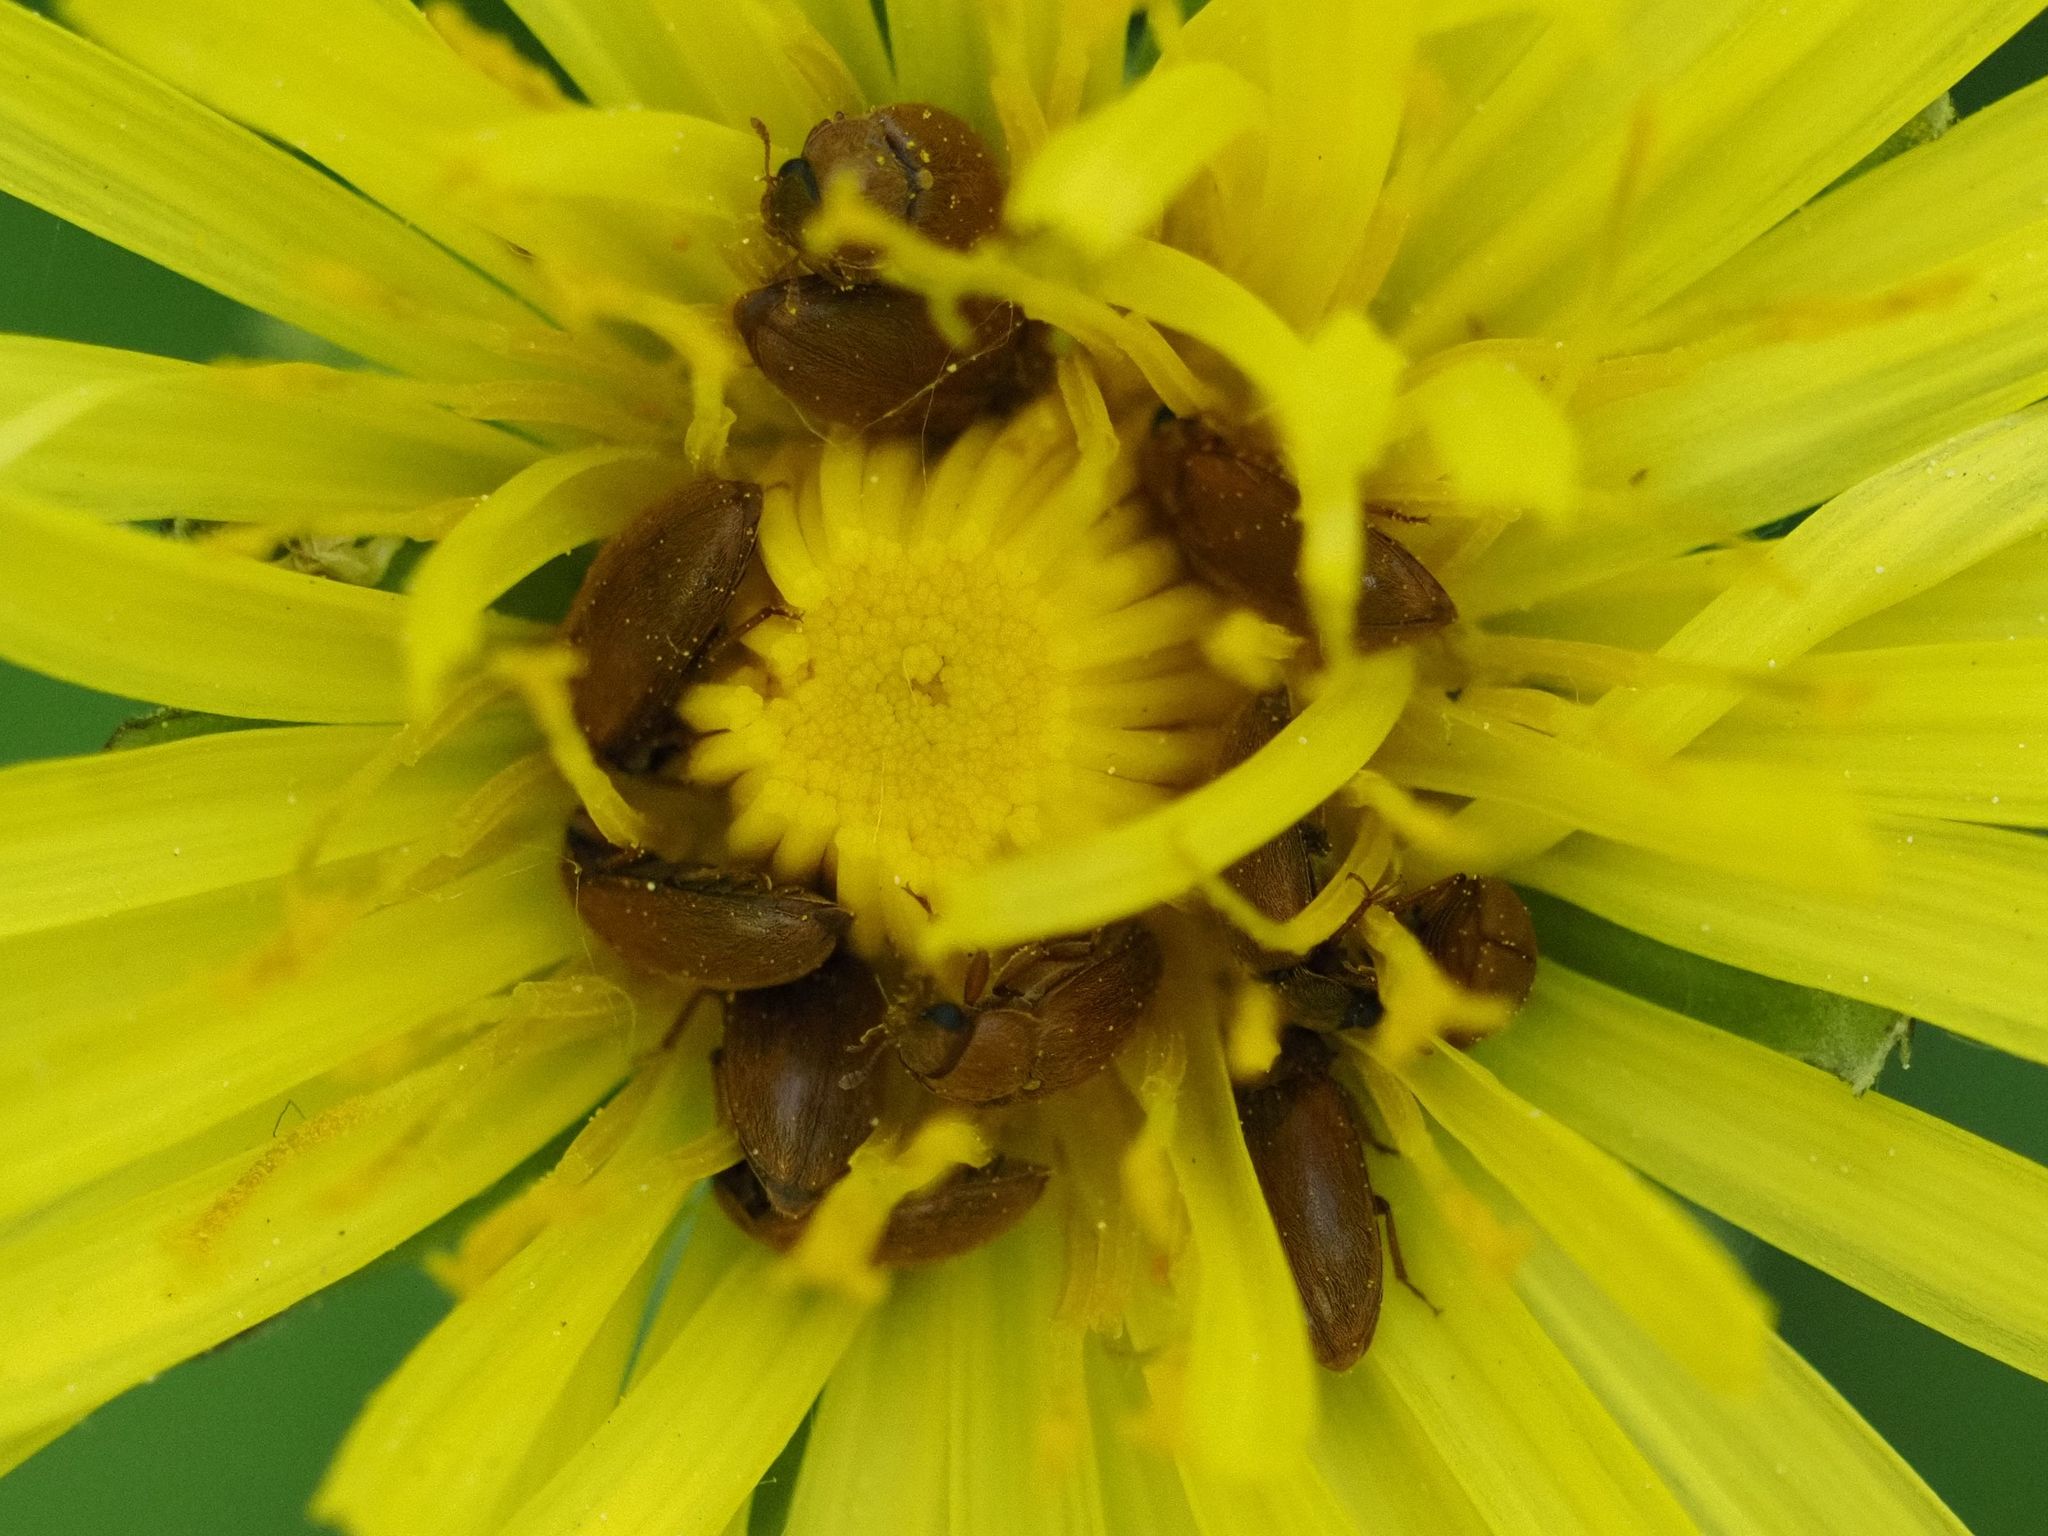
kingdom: Animalia
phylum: Arthropoda
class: Insecta
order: Coleoptera
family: Byturidae
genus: Byturus
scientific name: Byturus tomentosus
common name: Beetle
